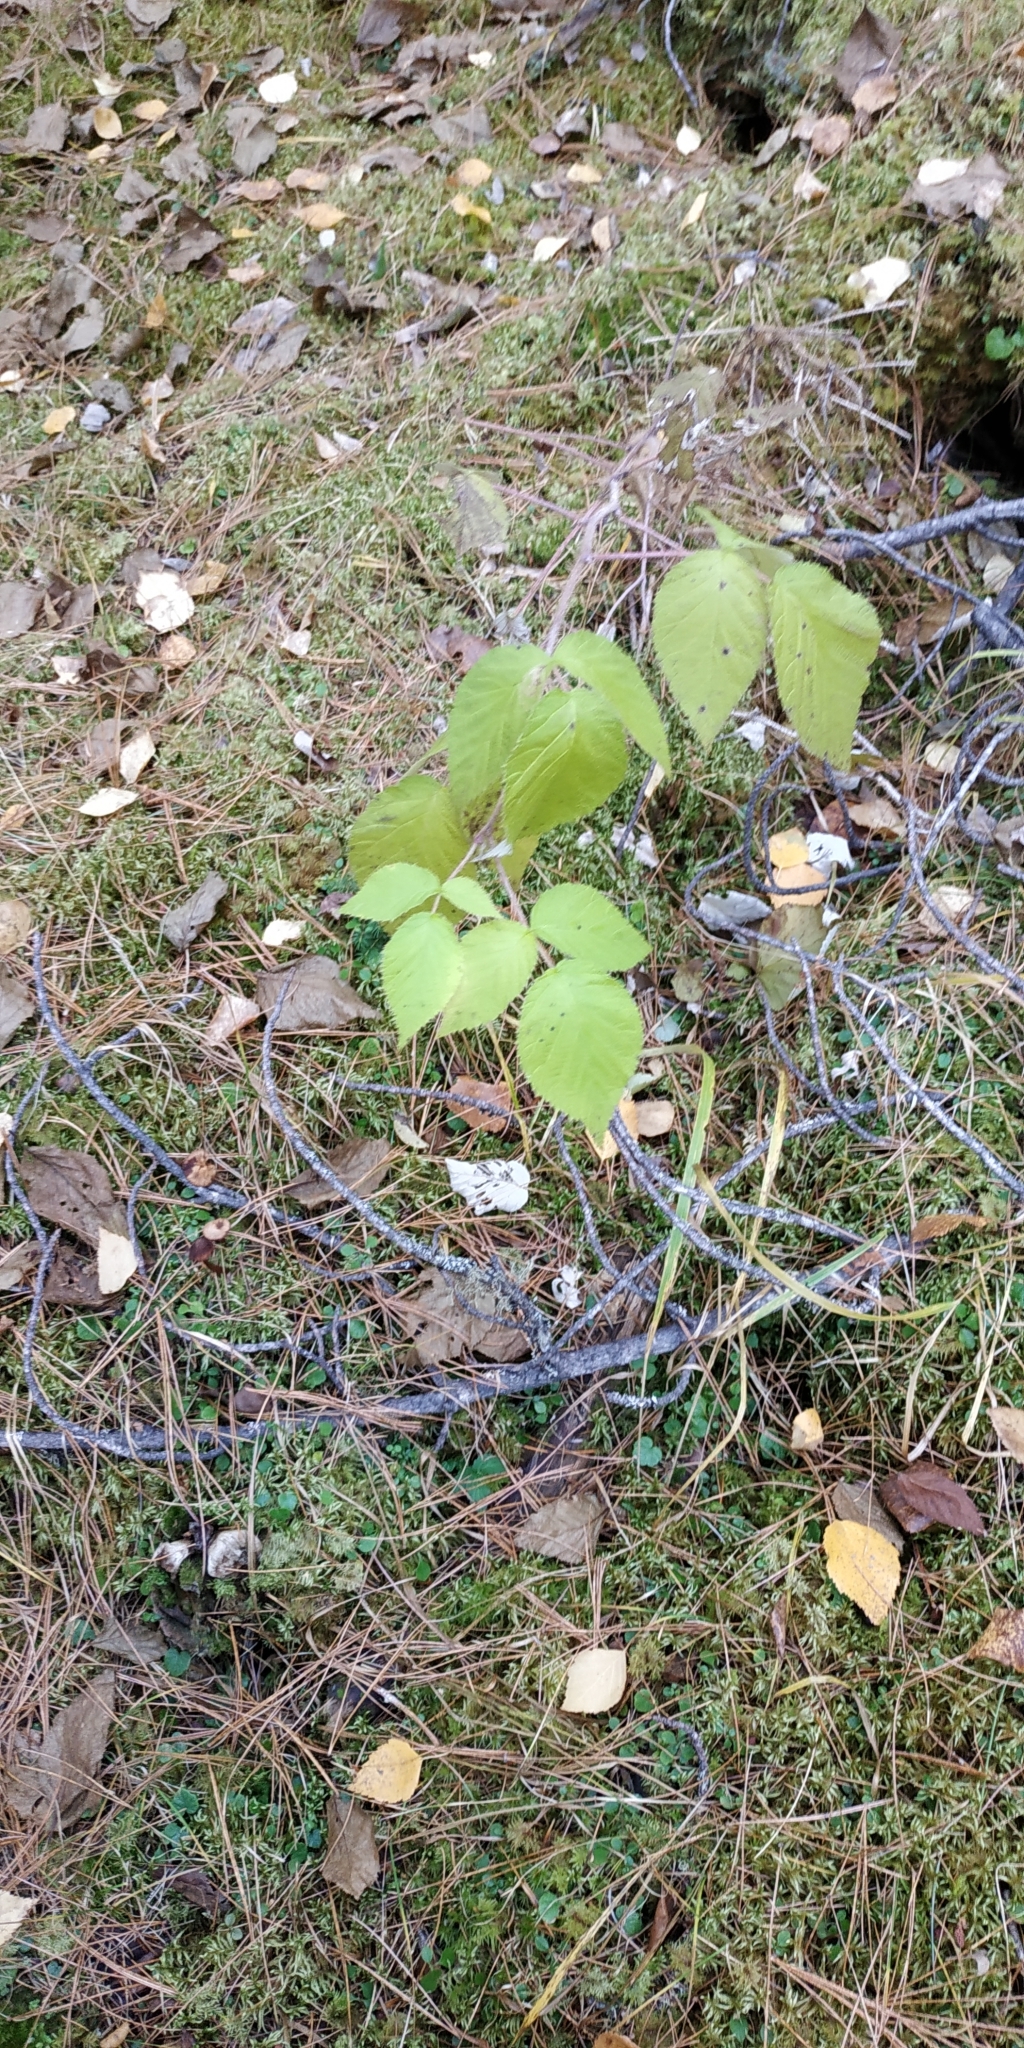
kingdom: Plantae
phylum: Tracheophyta
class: Magnoliopsida
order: Rosales
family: Rosaceae
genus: Rubus
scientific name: Rubus sachalinensis
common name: Red raspberry
